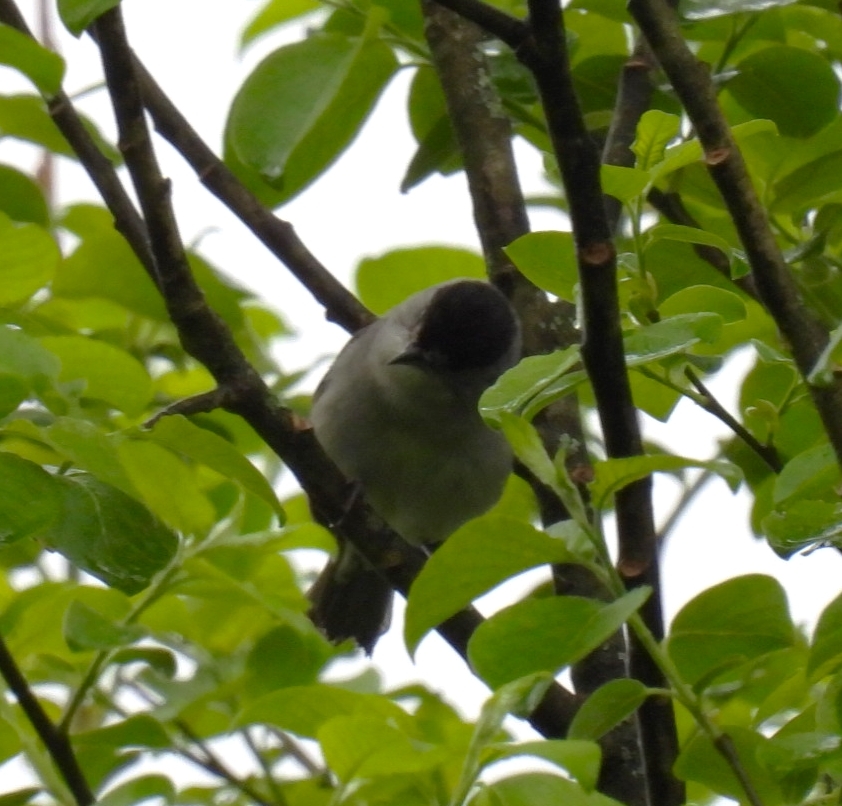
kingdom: Animalia
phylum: Chordata
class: Aves
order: Passeriformes
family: Sylviidae
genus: Sylvia
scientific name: Sylvia atricapilla
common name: Eurasian blackcap
